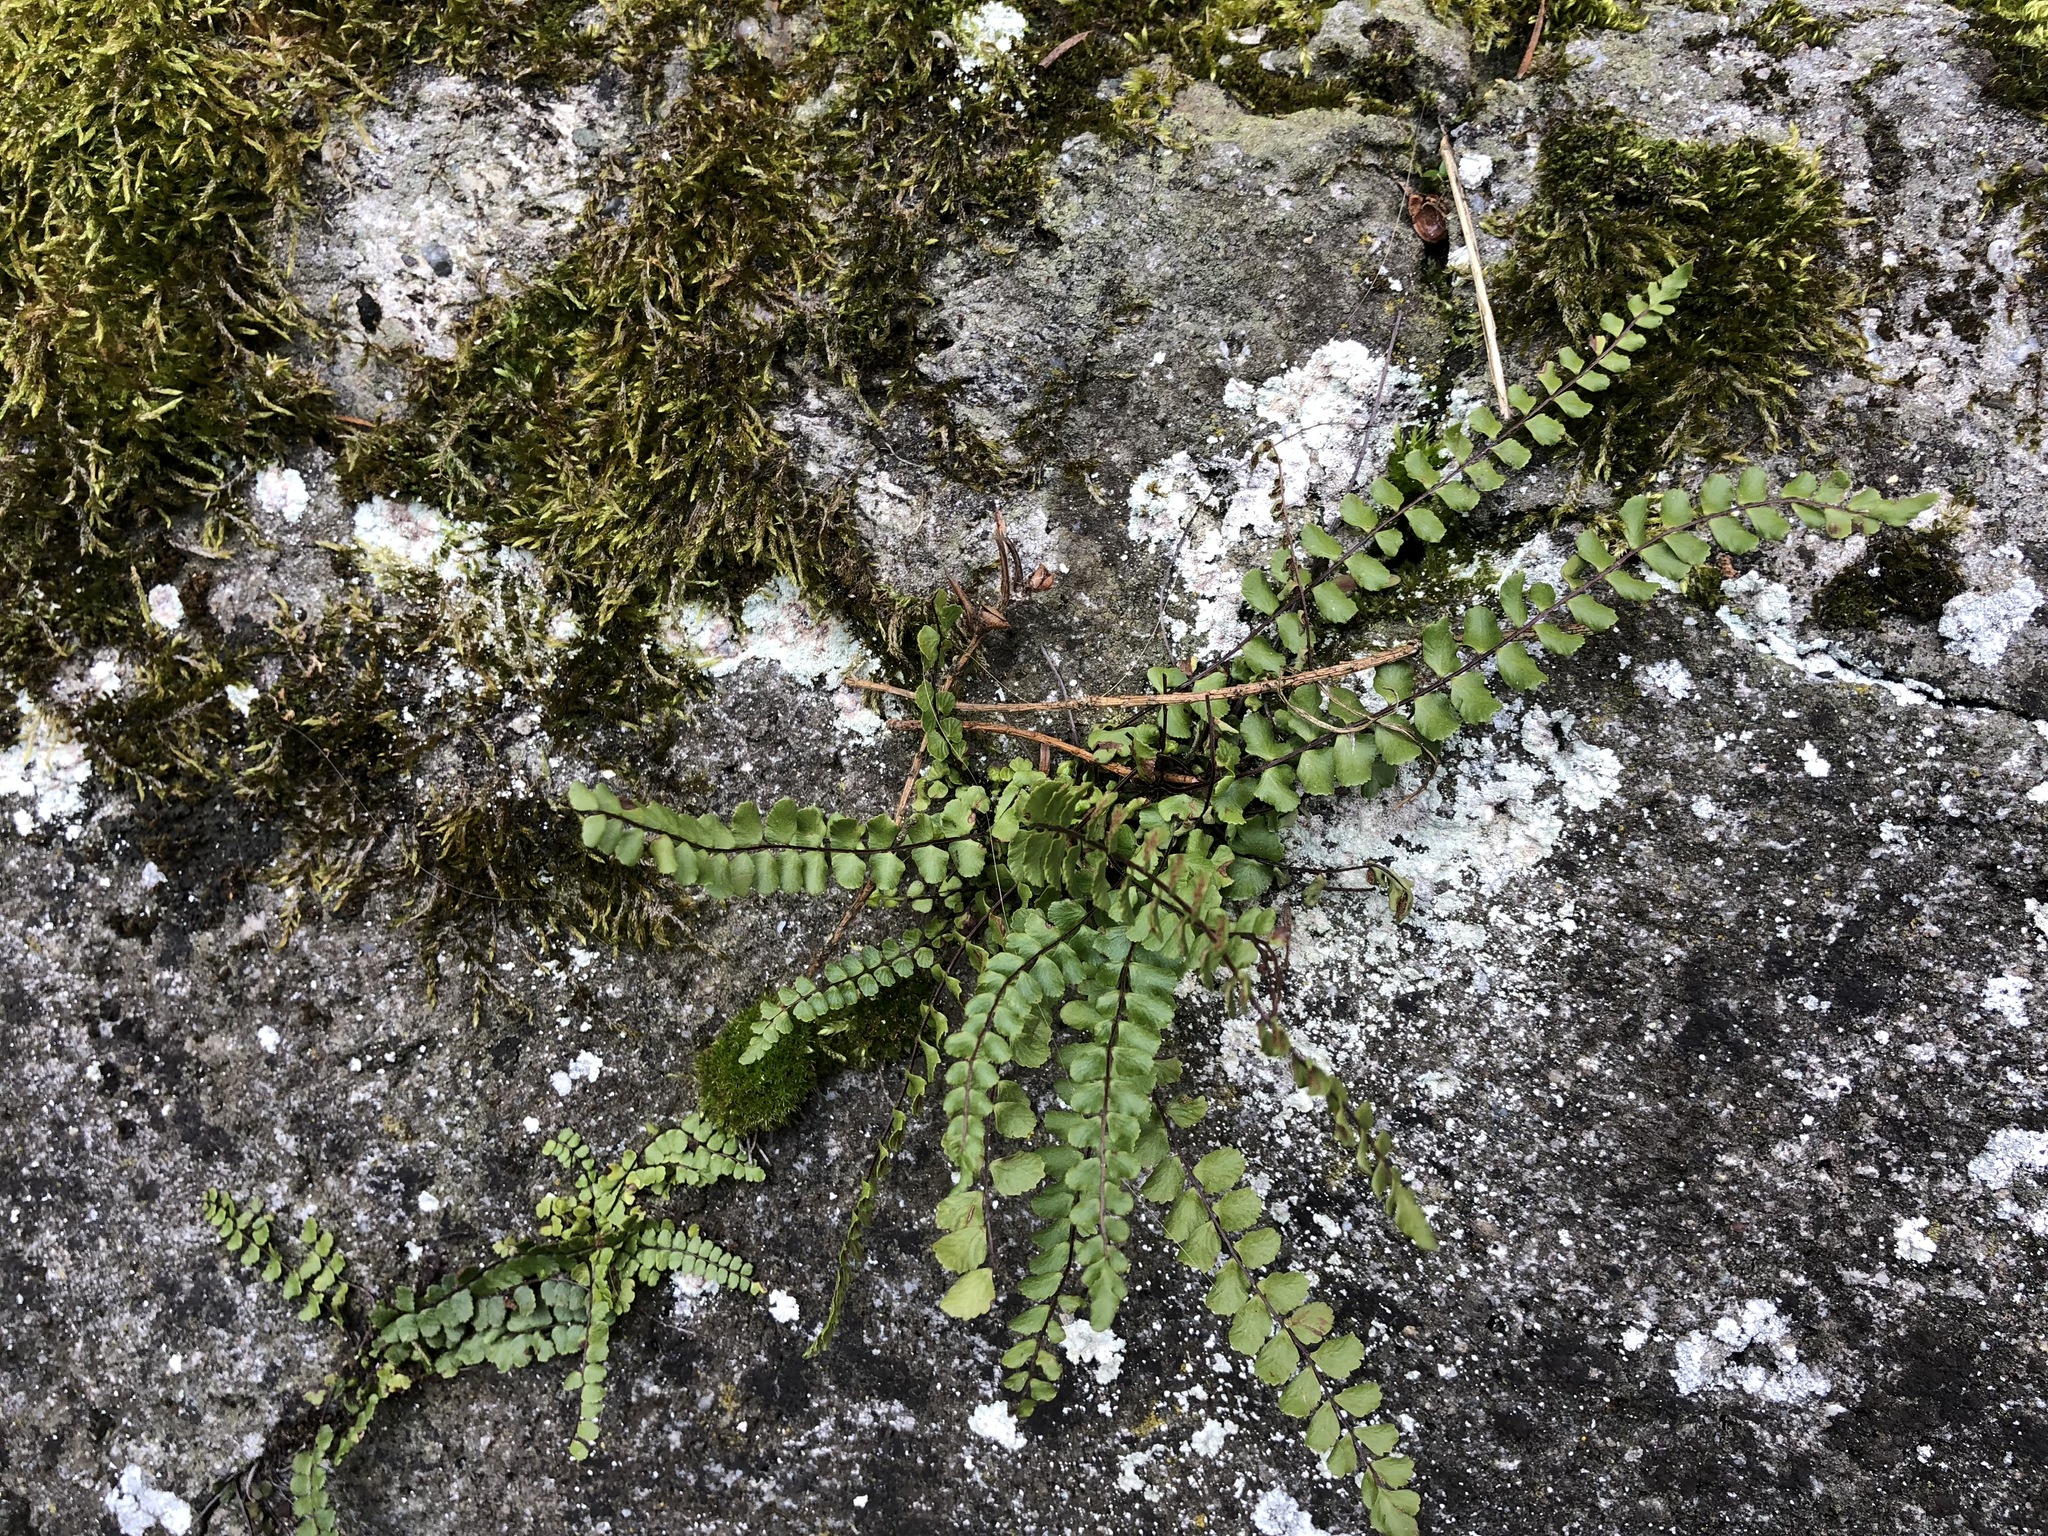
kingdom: Plantae
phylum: Tracheophyta
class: Polypodiopsida
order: Polypodiales
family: Aspleniaceae
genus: Asplenium
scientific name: Asplenium trichomanes
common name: Maidenhair spleenwort
